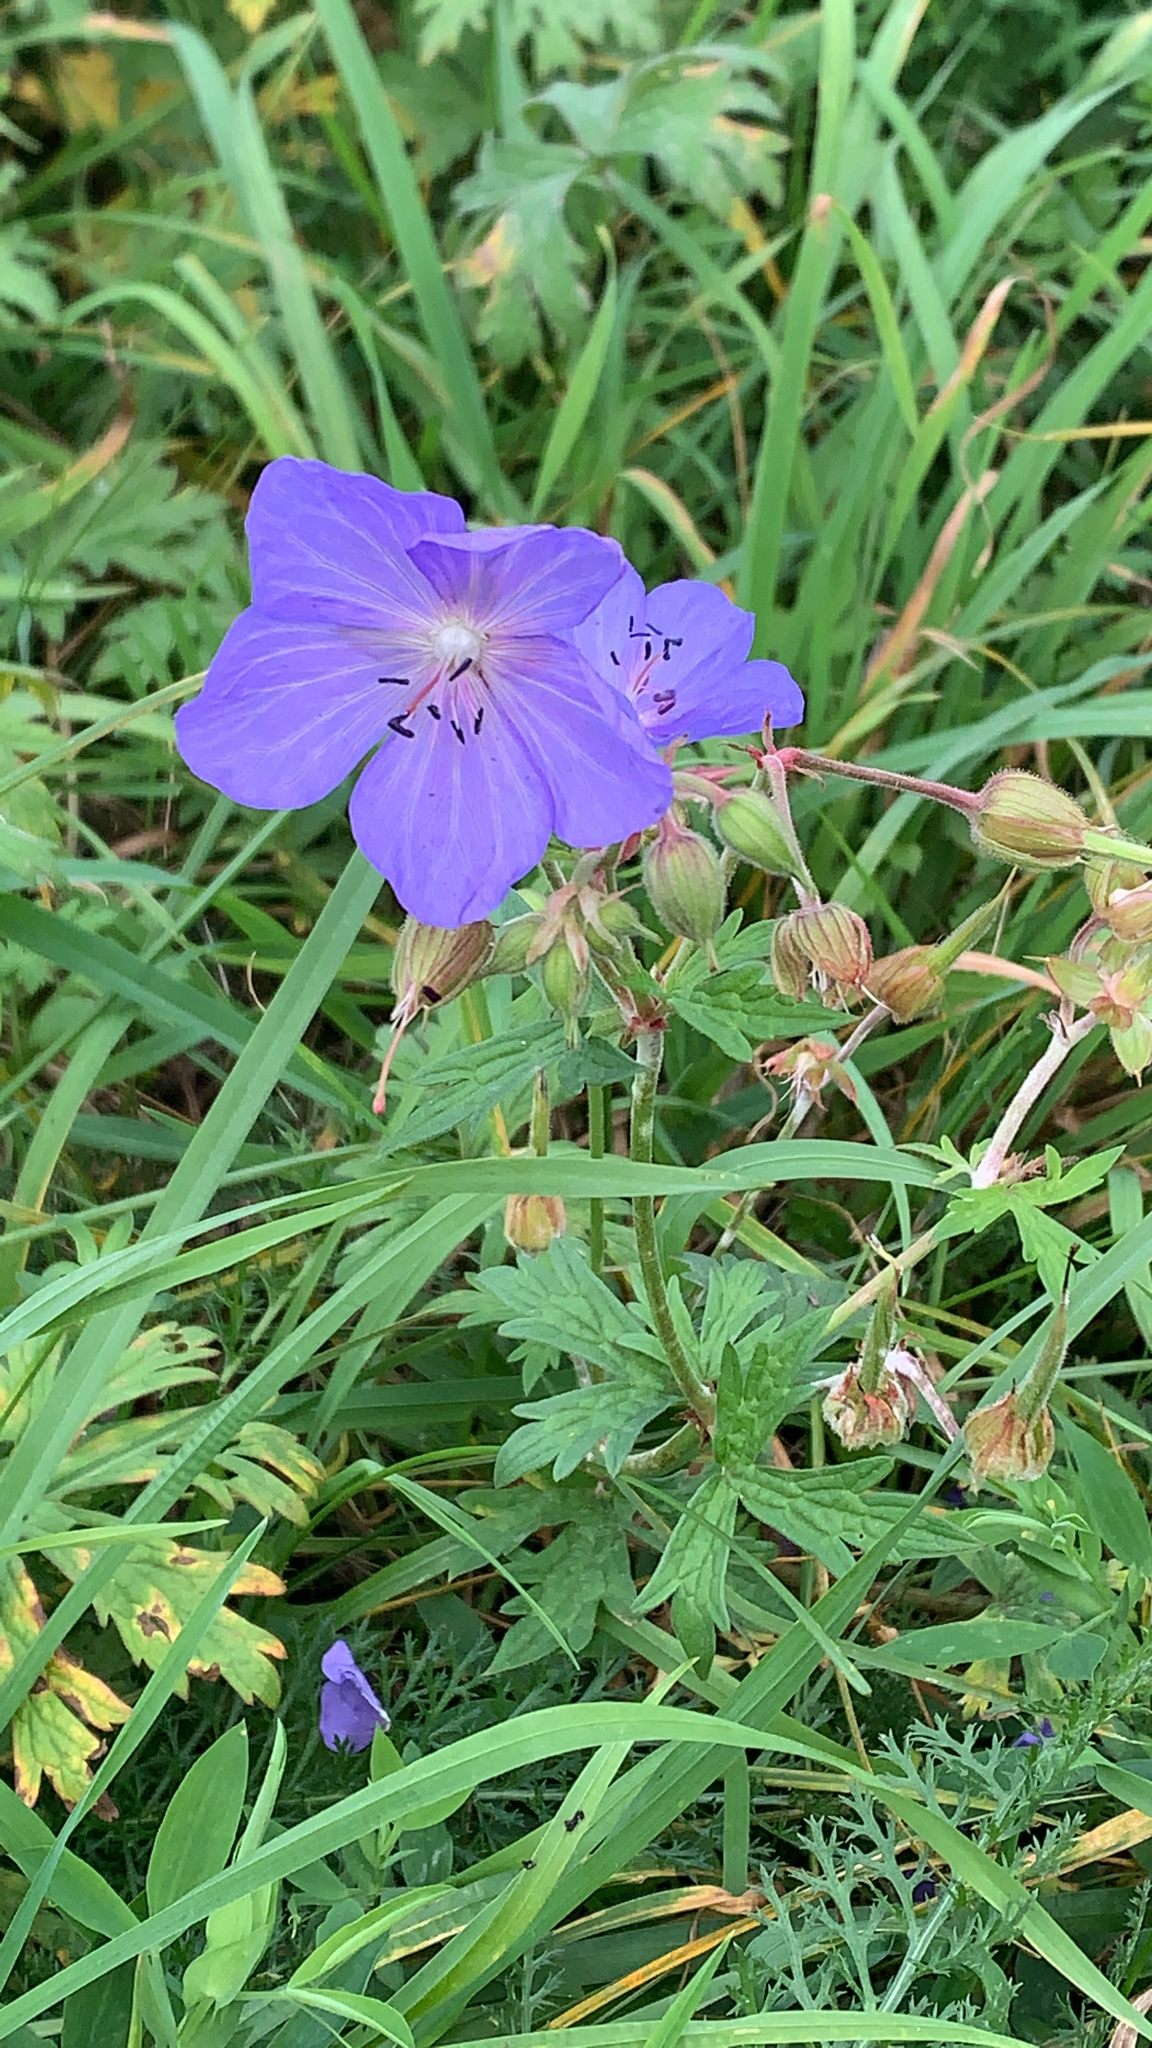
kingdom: Plantae
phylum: Tracheophyta
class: Magnoliopsida
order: Geraniales
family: Geraniaceae
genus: Geranium
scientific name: Geranium pratense
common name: Meadow crane's-bill
